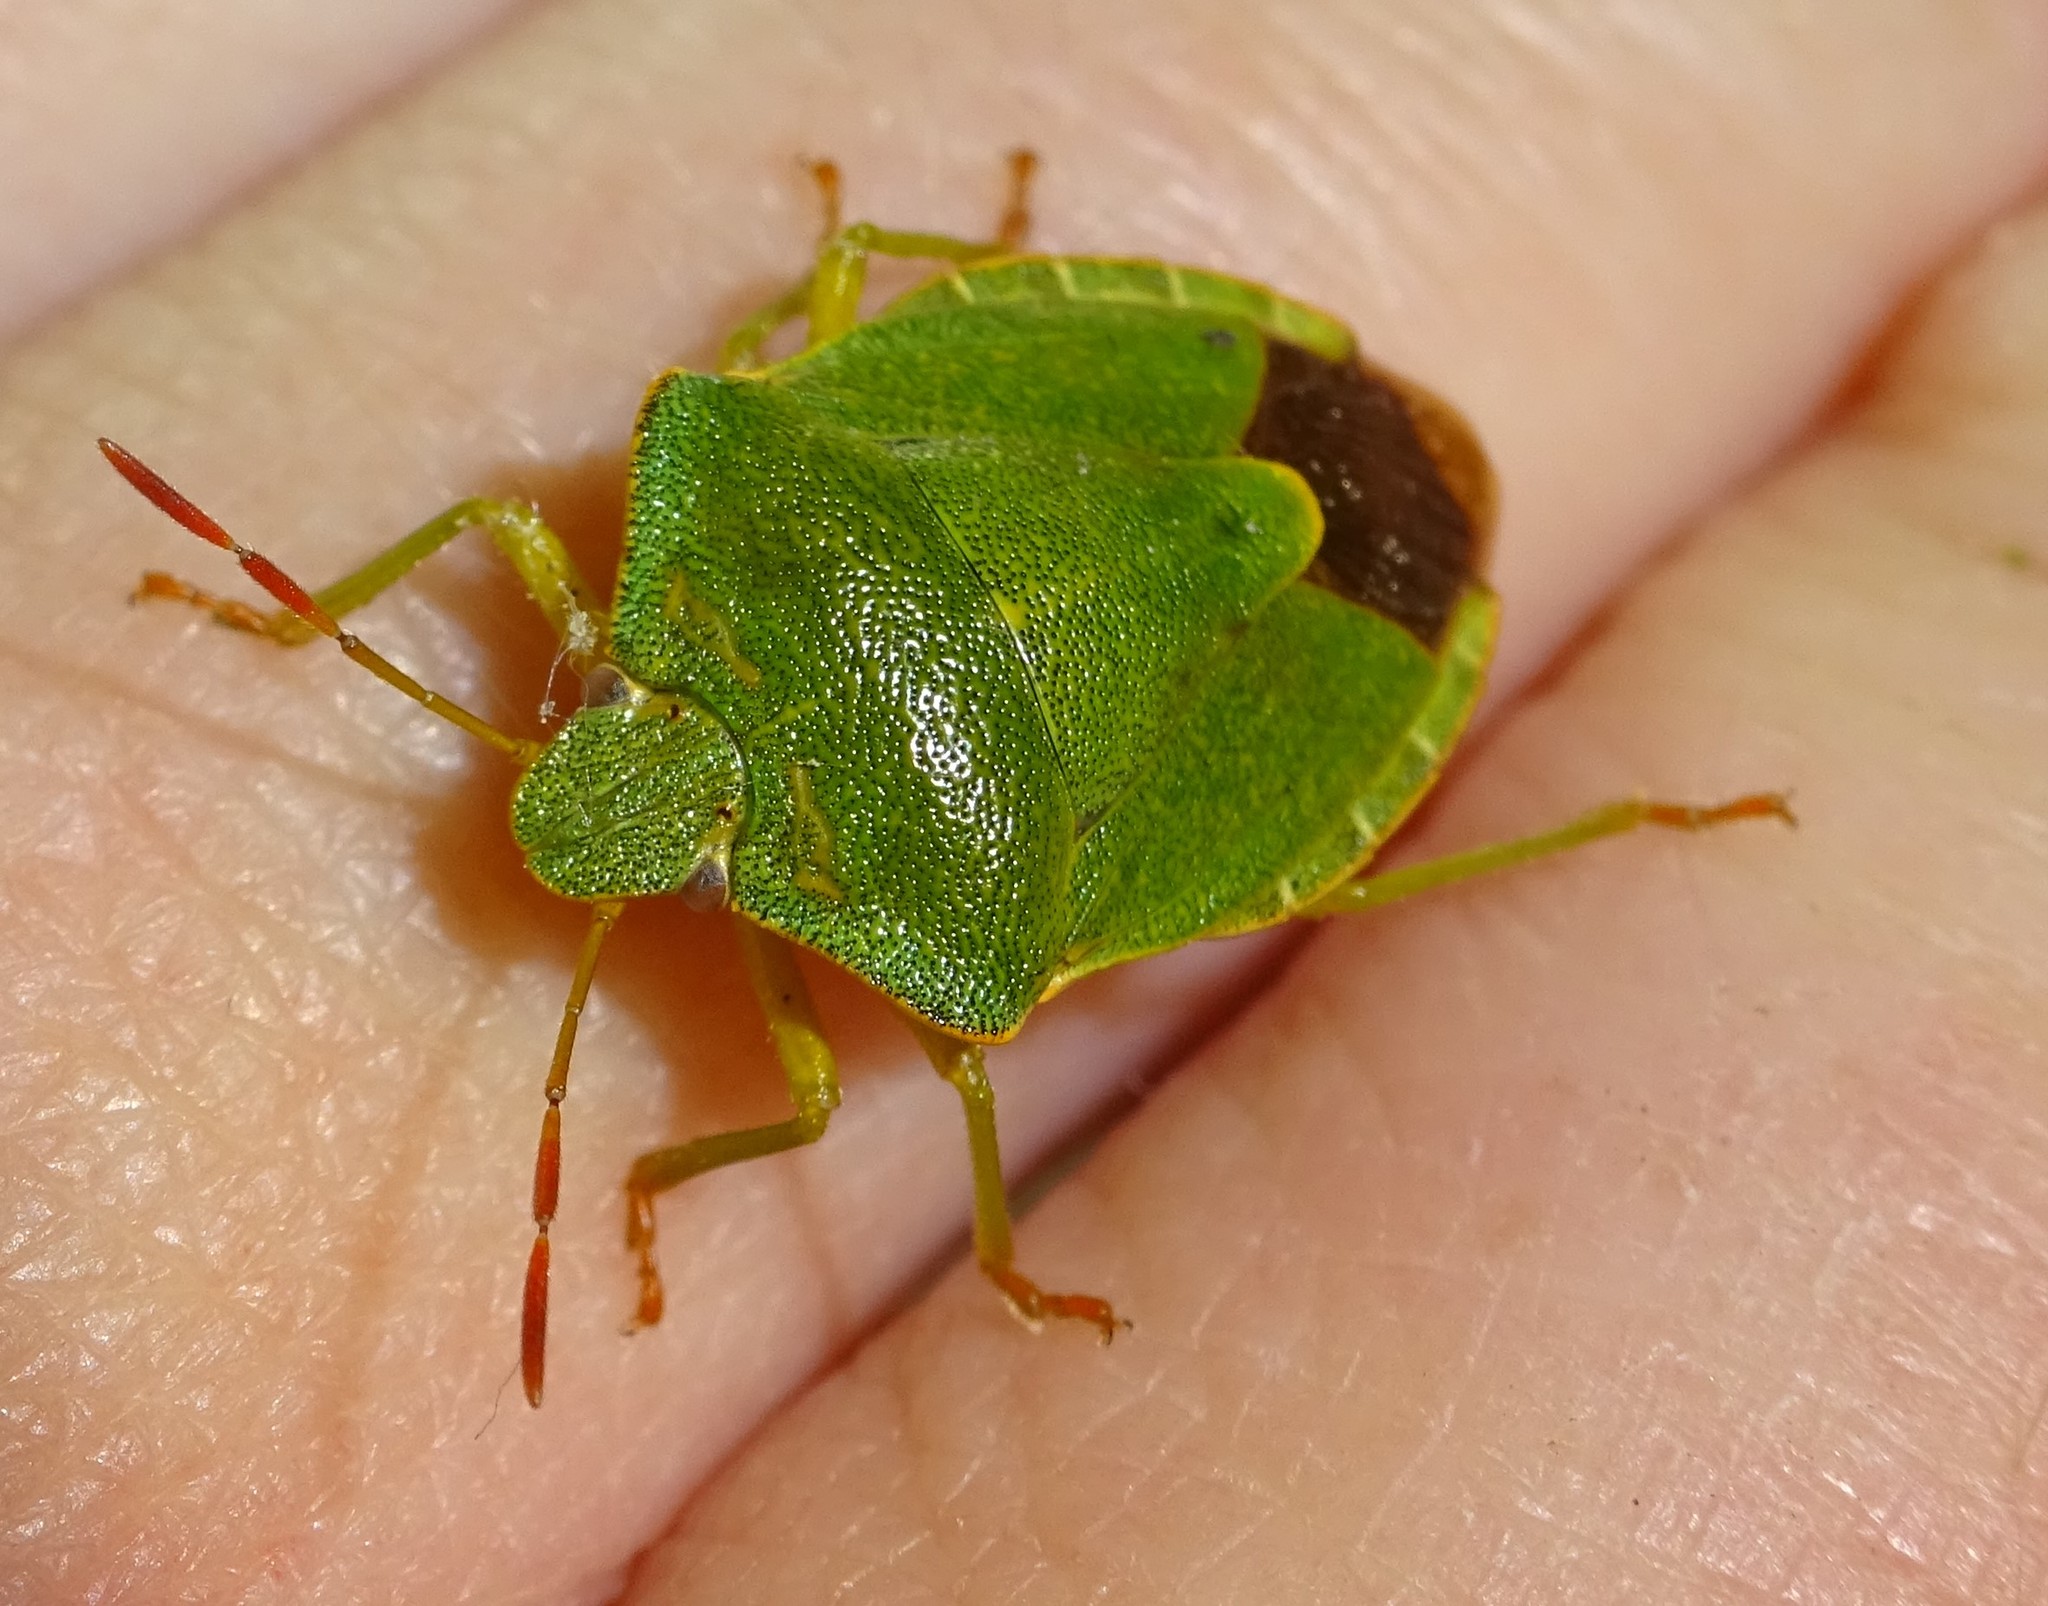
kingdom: Animalia
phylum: Arthropoda
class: Insecta
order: Hemiptera
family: Pentatomidae
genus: Palomena
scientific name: Palomena prasina
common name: Green shieldbug
